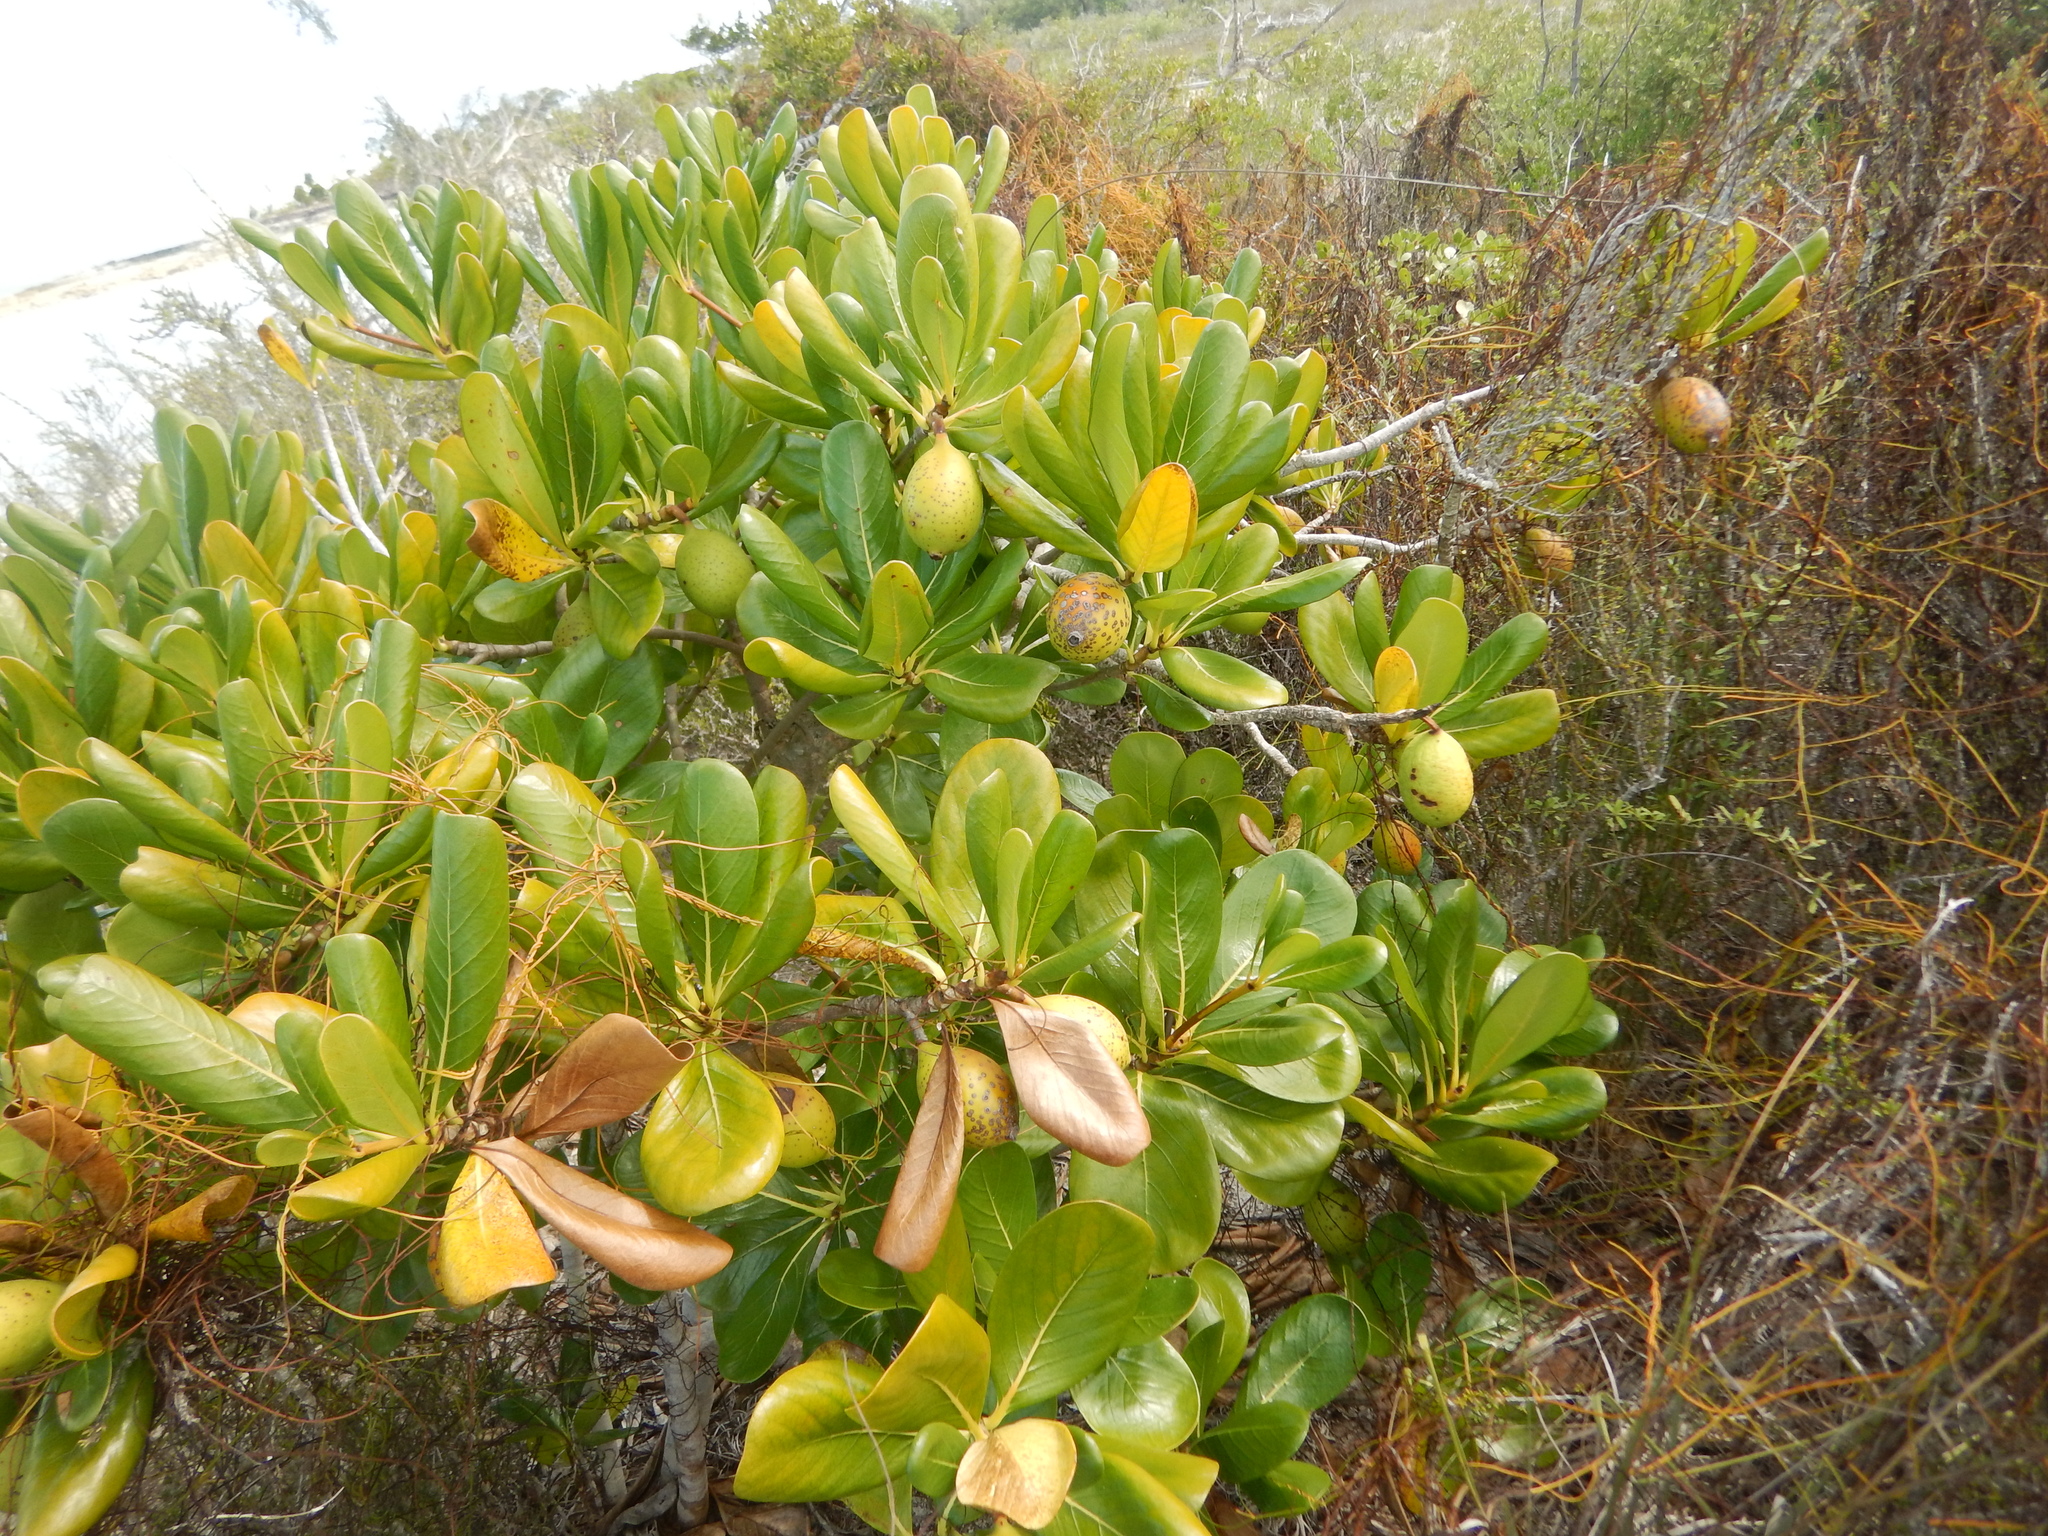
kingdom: Plantae
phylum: Tracheophyta
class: Magnoliopsida
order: Gentianales
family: Rubiaceae
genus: Casasia
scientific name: Casasia clusiifolia
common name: Seven-year apple
